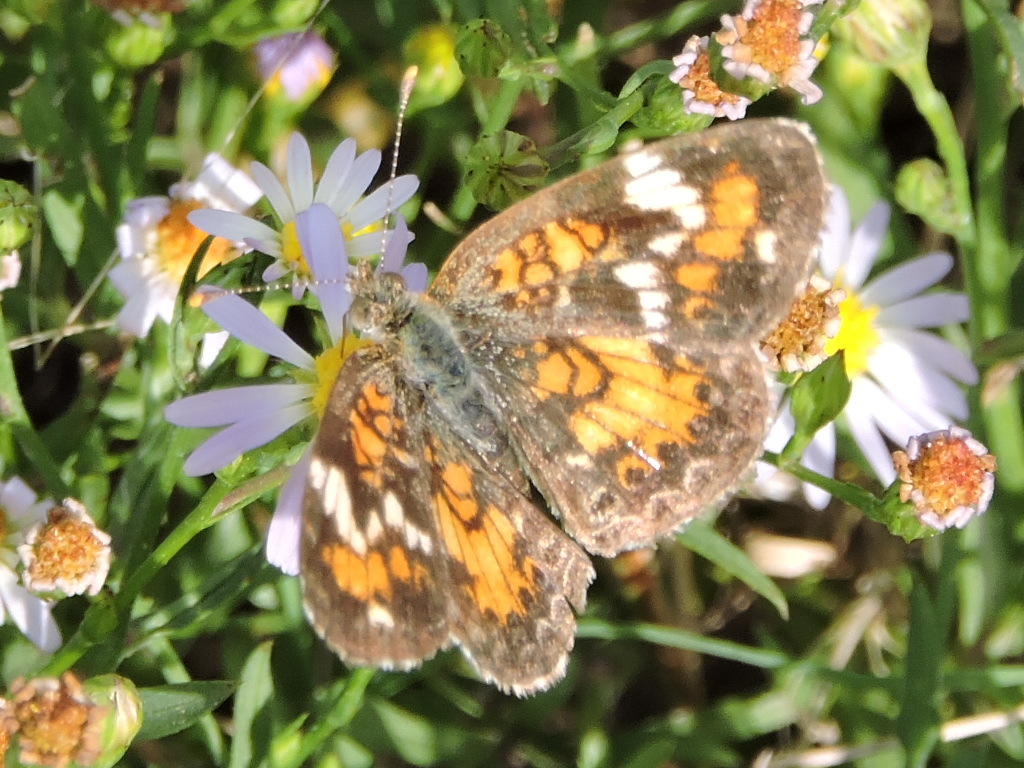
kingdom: Animalia
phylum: Arthropoda
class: Insecta
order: Lepidoptera
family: Nymphalidae
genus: Phyciodes
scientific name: Phyciodes phaon
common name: Phaon crescent
